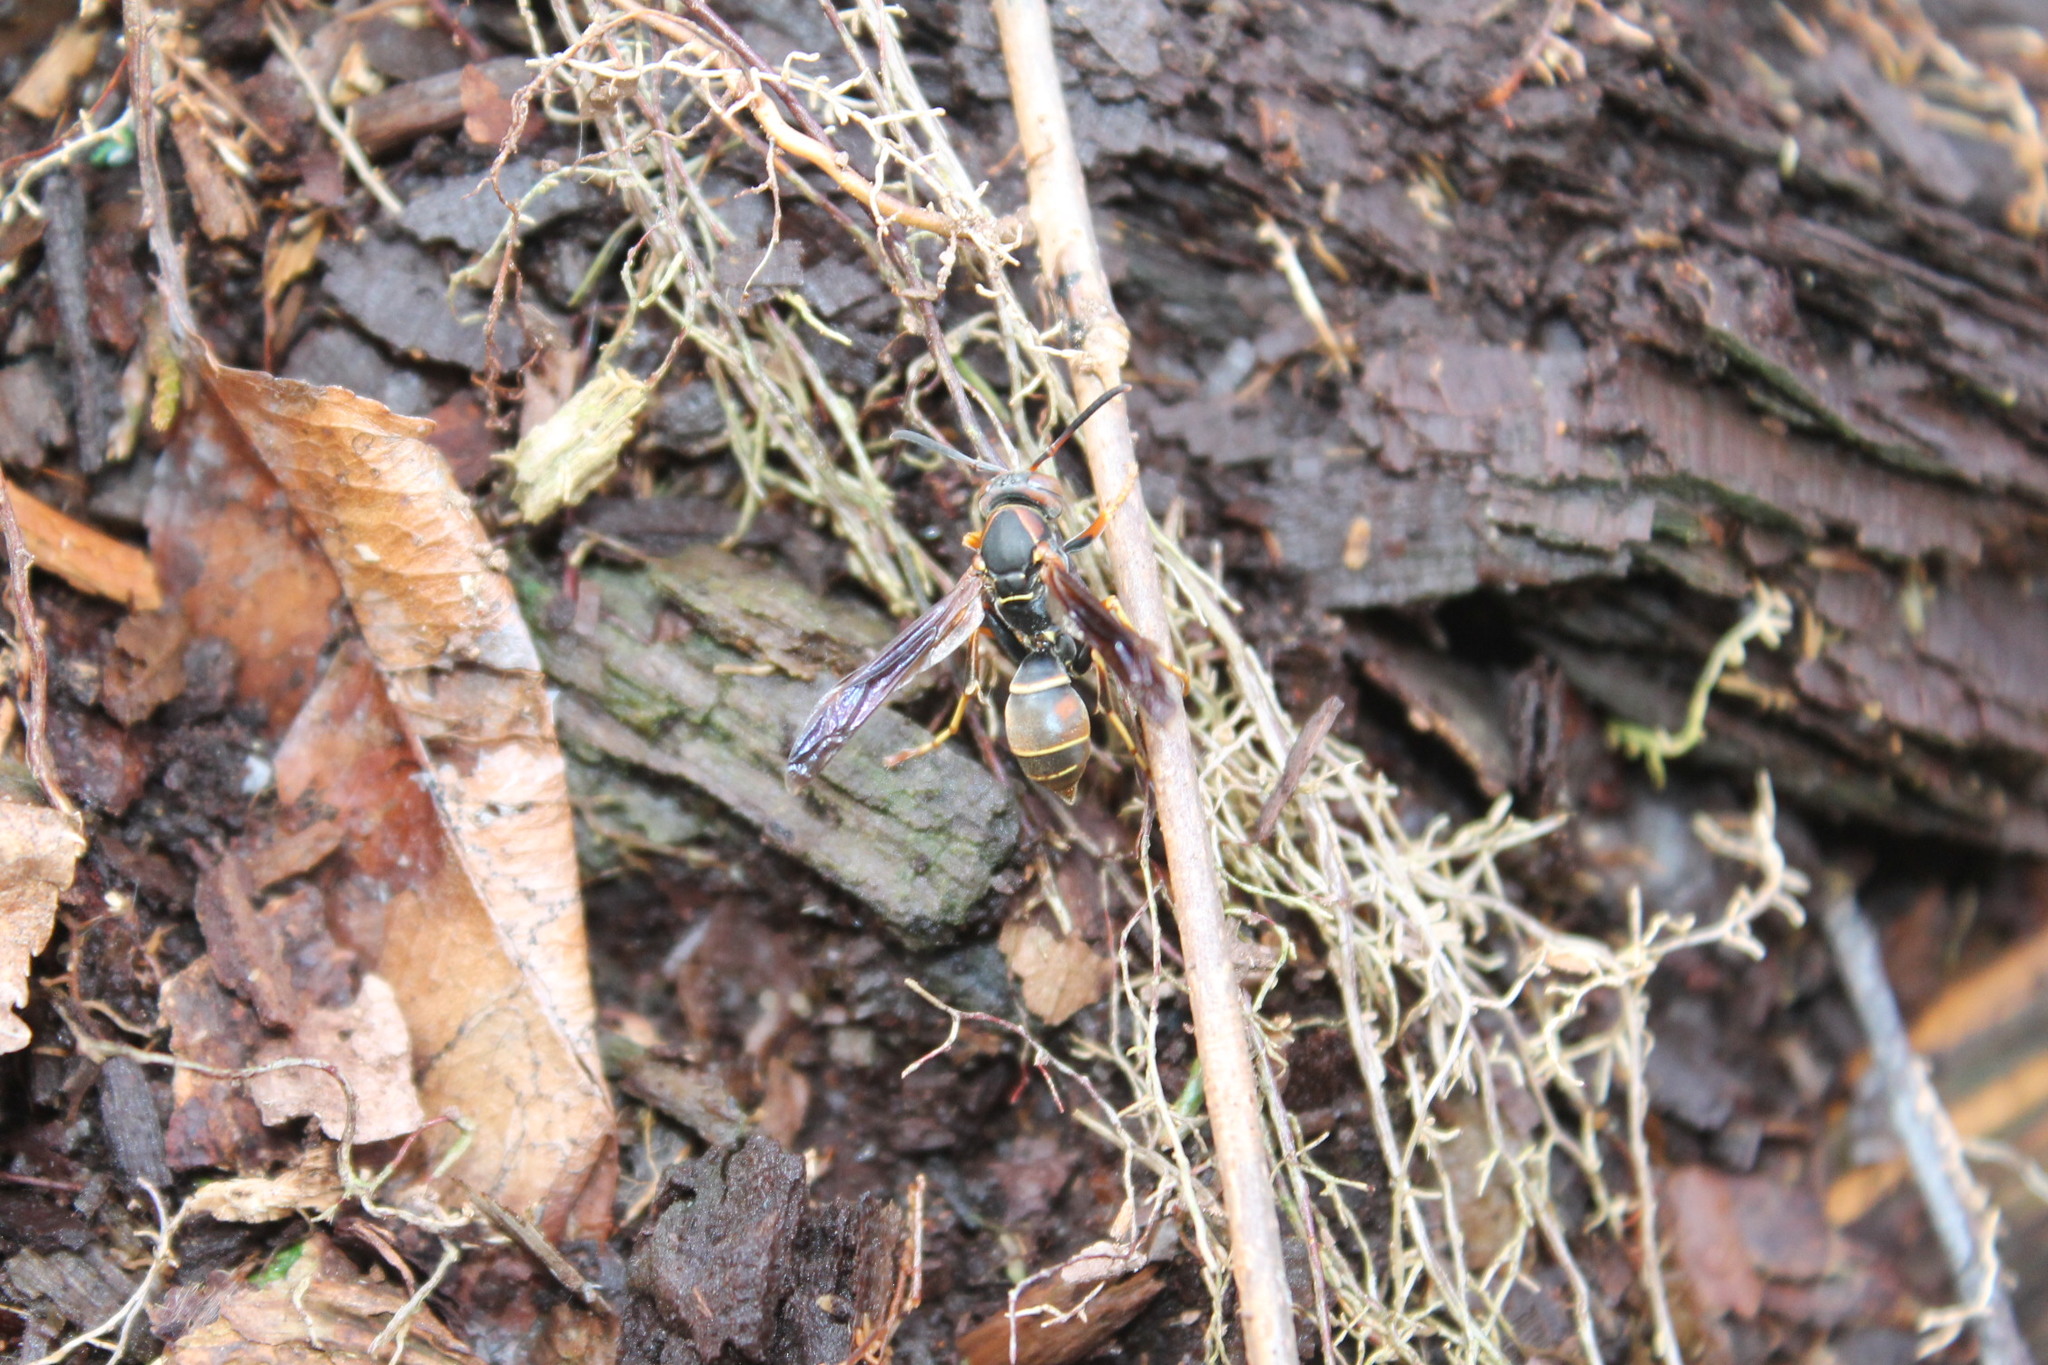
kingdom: Animalia
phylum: Arthropoda
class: Insecta
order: Hymenoptera
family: Eumenidae
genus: Polistes
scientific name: Polistes fuscatus
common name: Dark paper wasp
